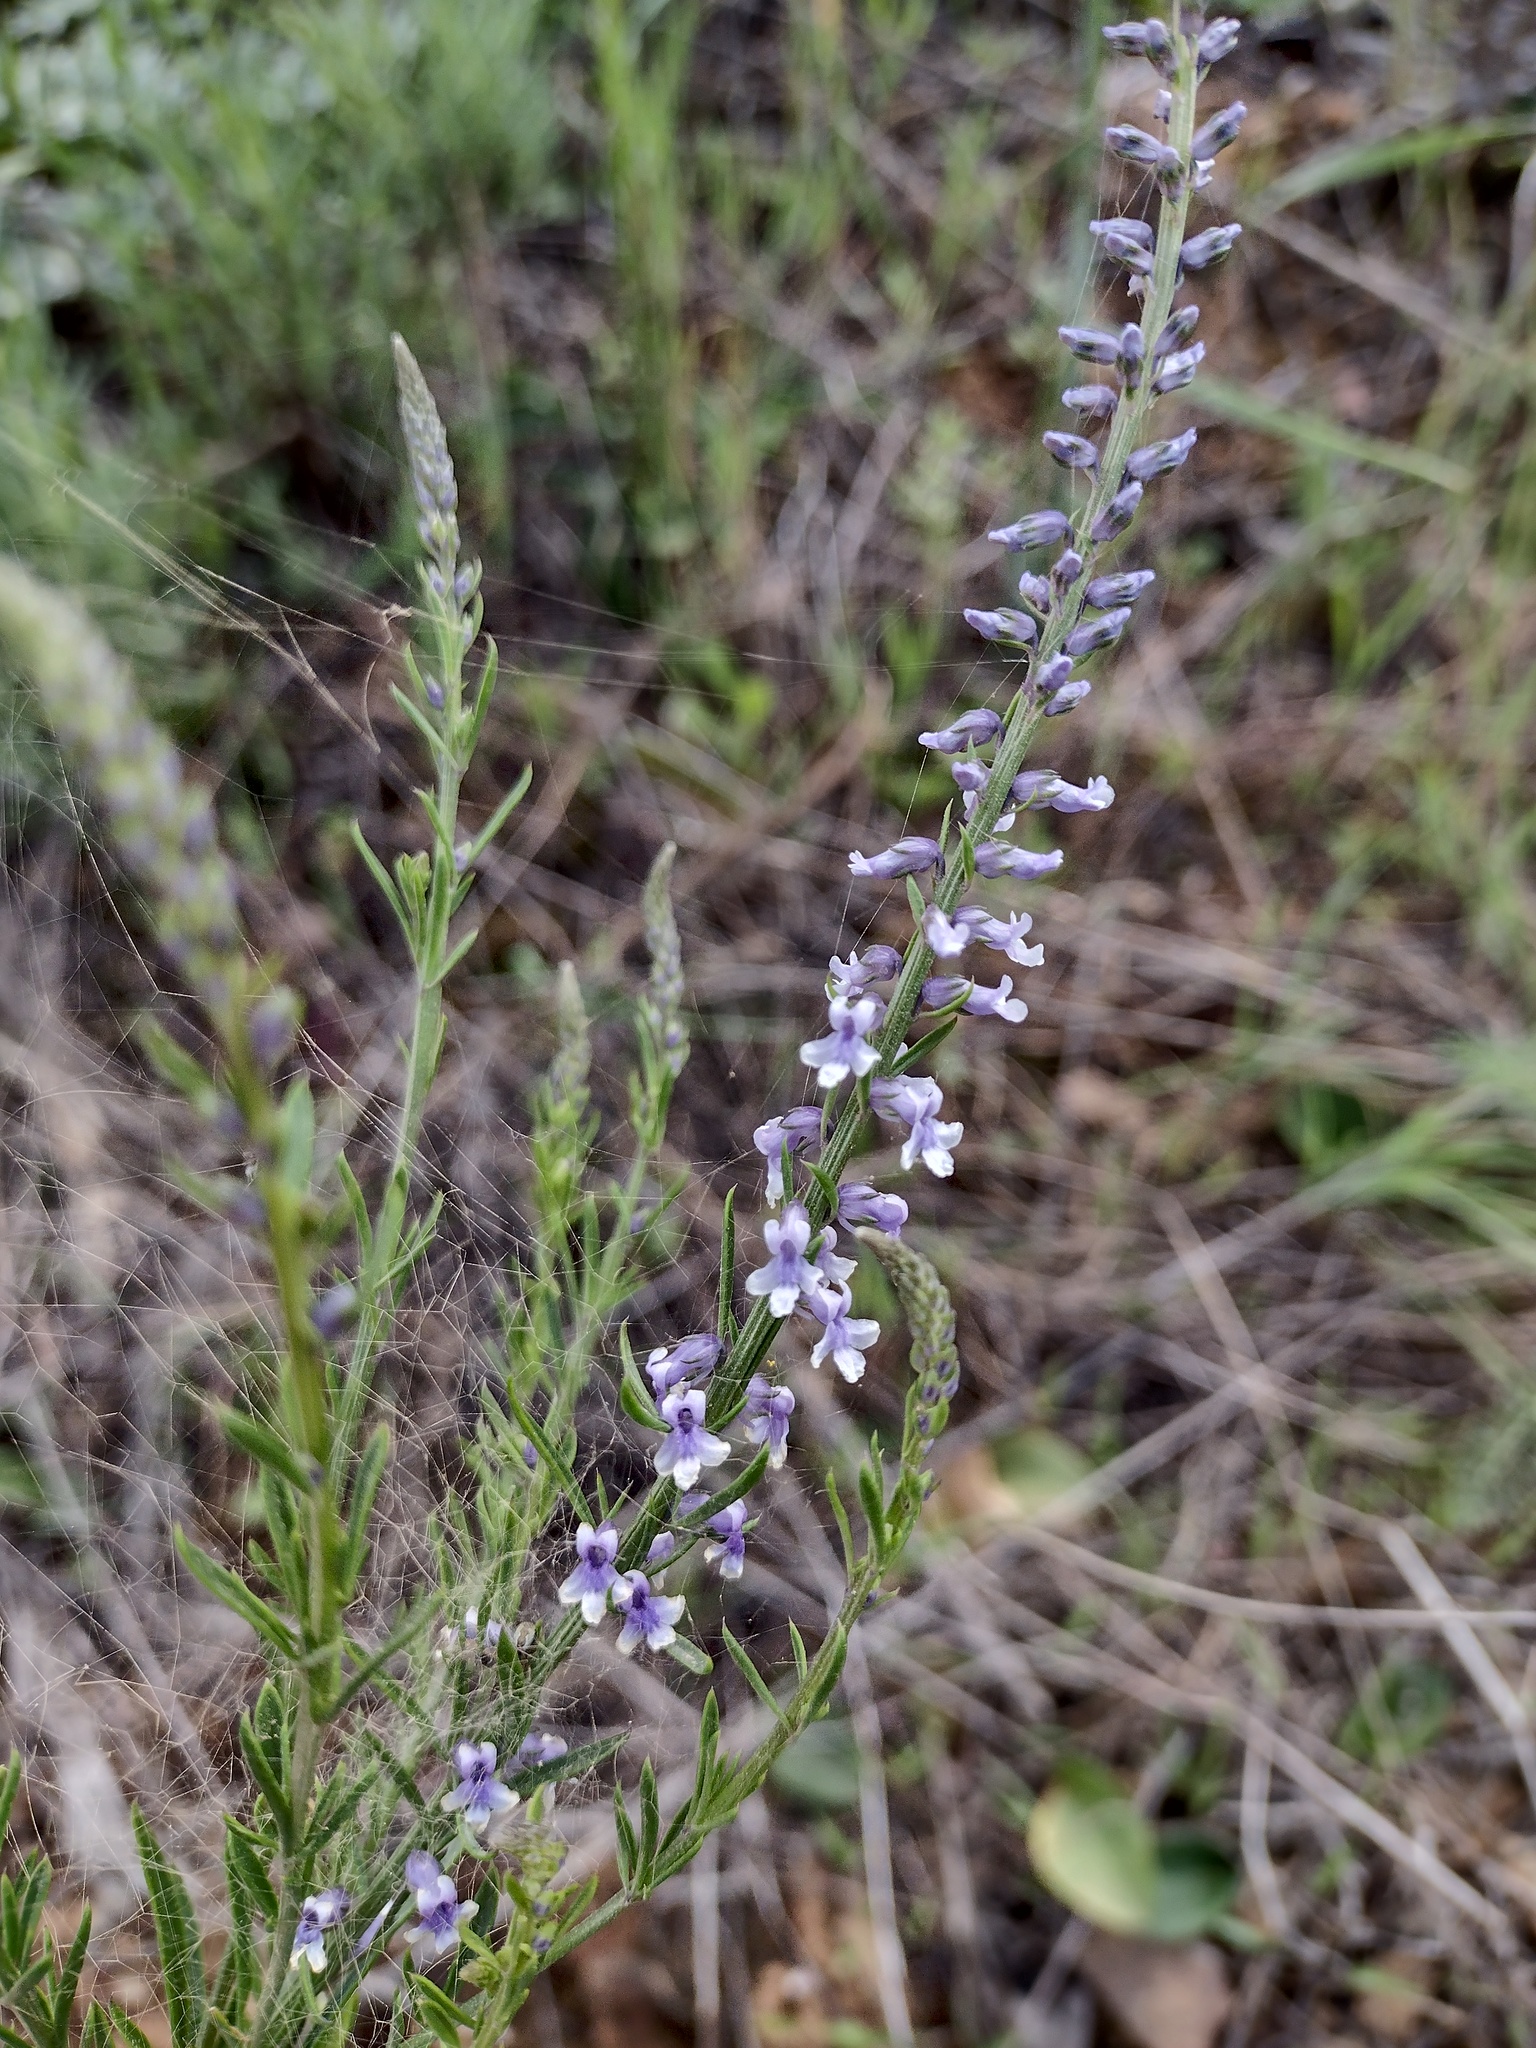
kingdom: Plantae
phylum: Tracheophyta
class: Magnoliopsida
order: Lamiales
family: Plantaginaceae
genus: Anarrhinum
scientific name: Anarrhinum bellidifolium
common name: Daisy-leaved toadflax
